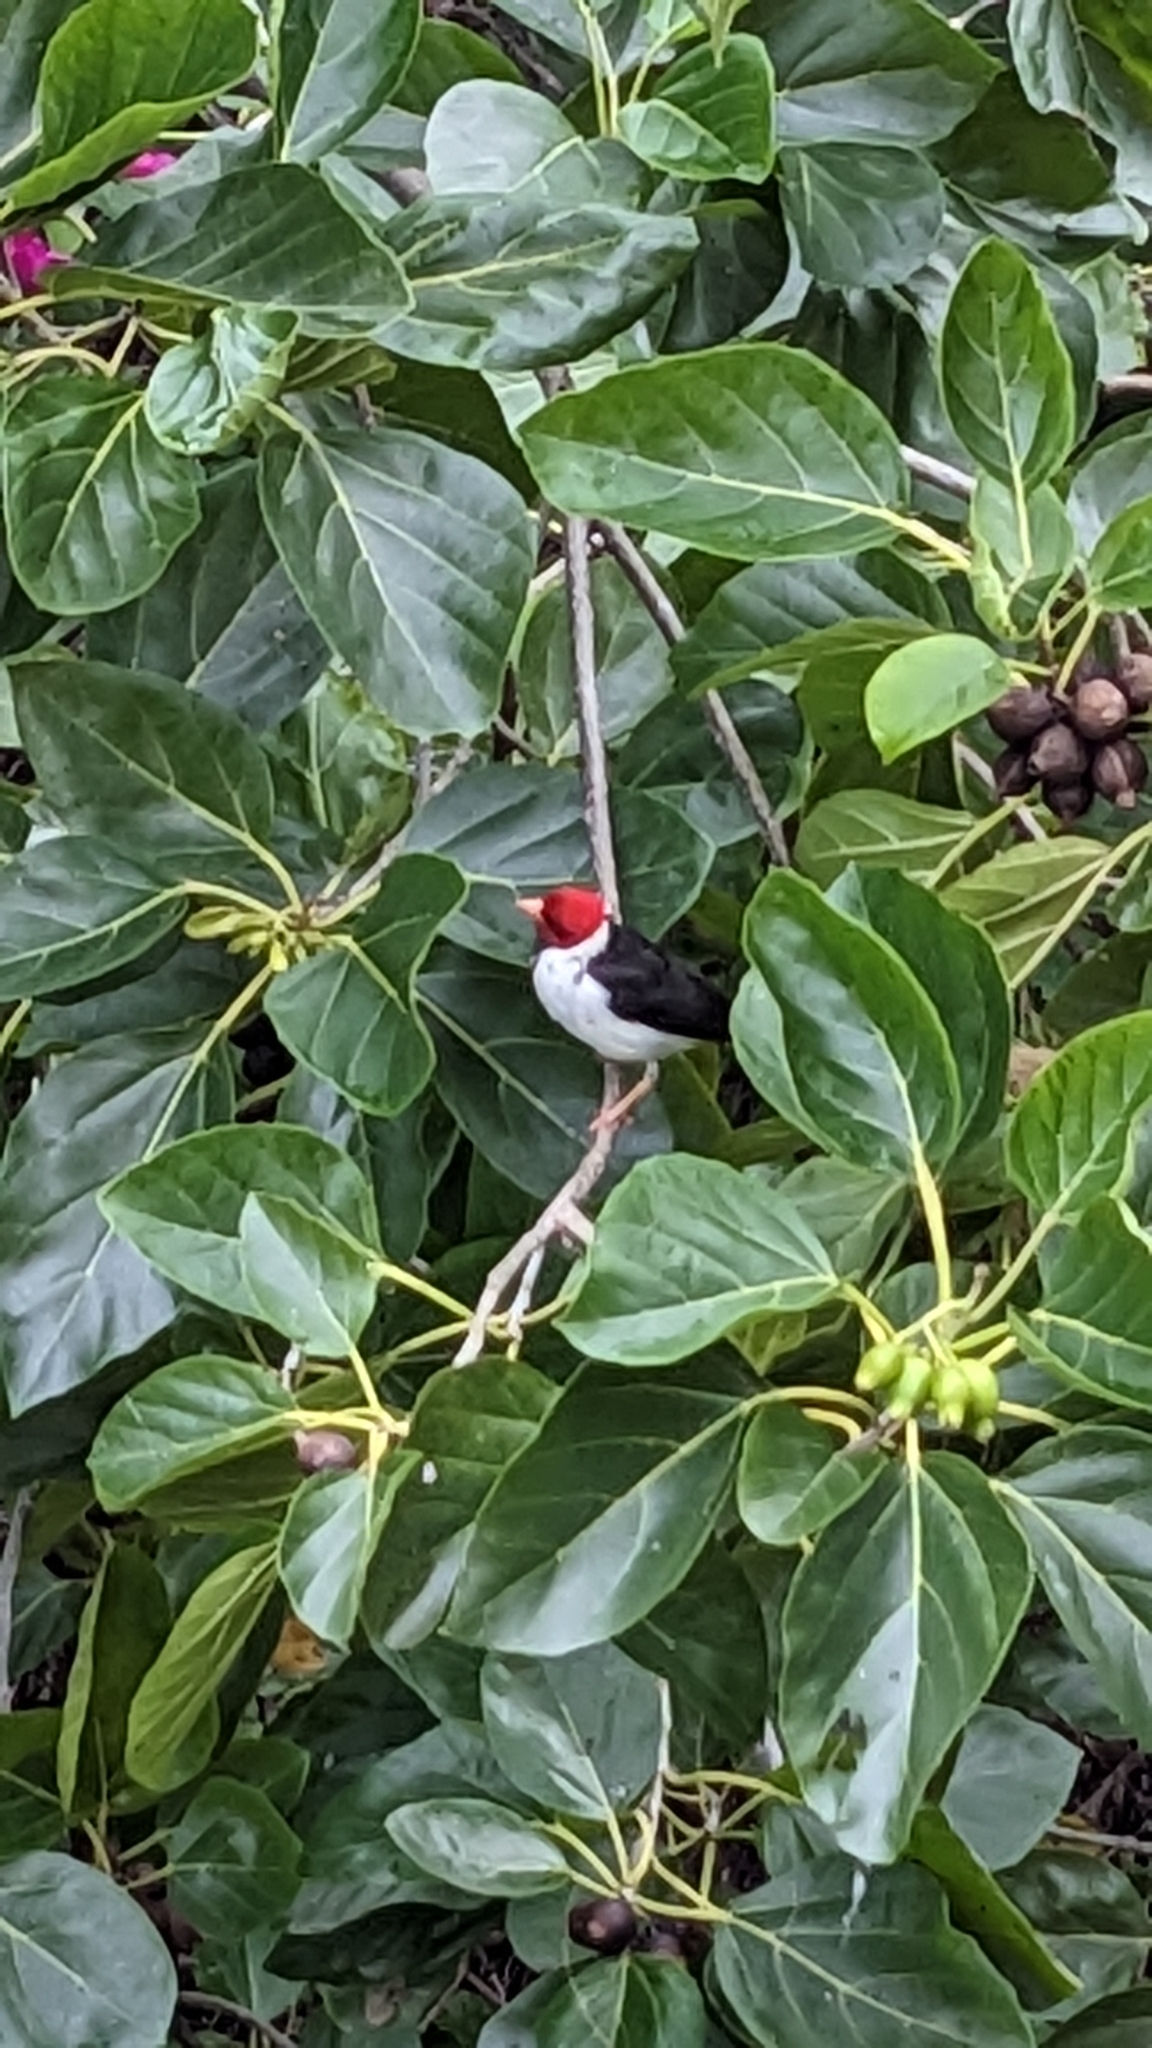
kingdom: Animalia
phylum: Chordata
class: Aves
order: Passeriformes
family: Thraupidae
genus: Paroaria
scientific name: Paroaria capitata
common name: Yellow-billed cardinal
